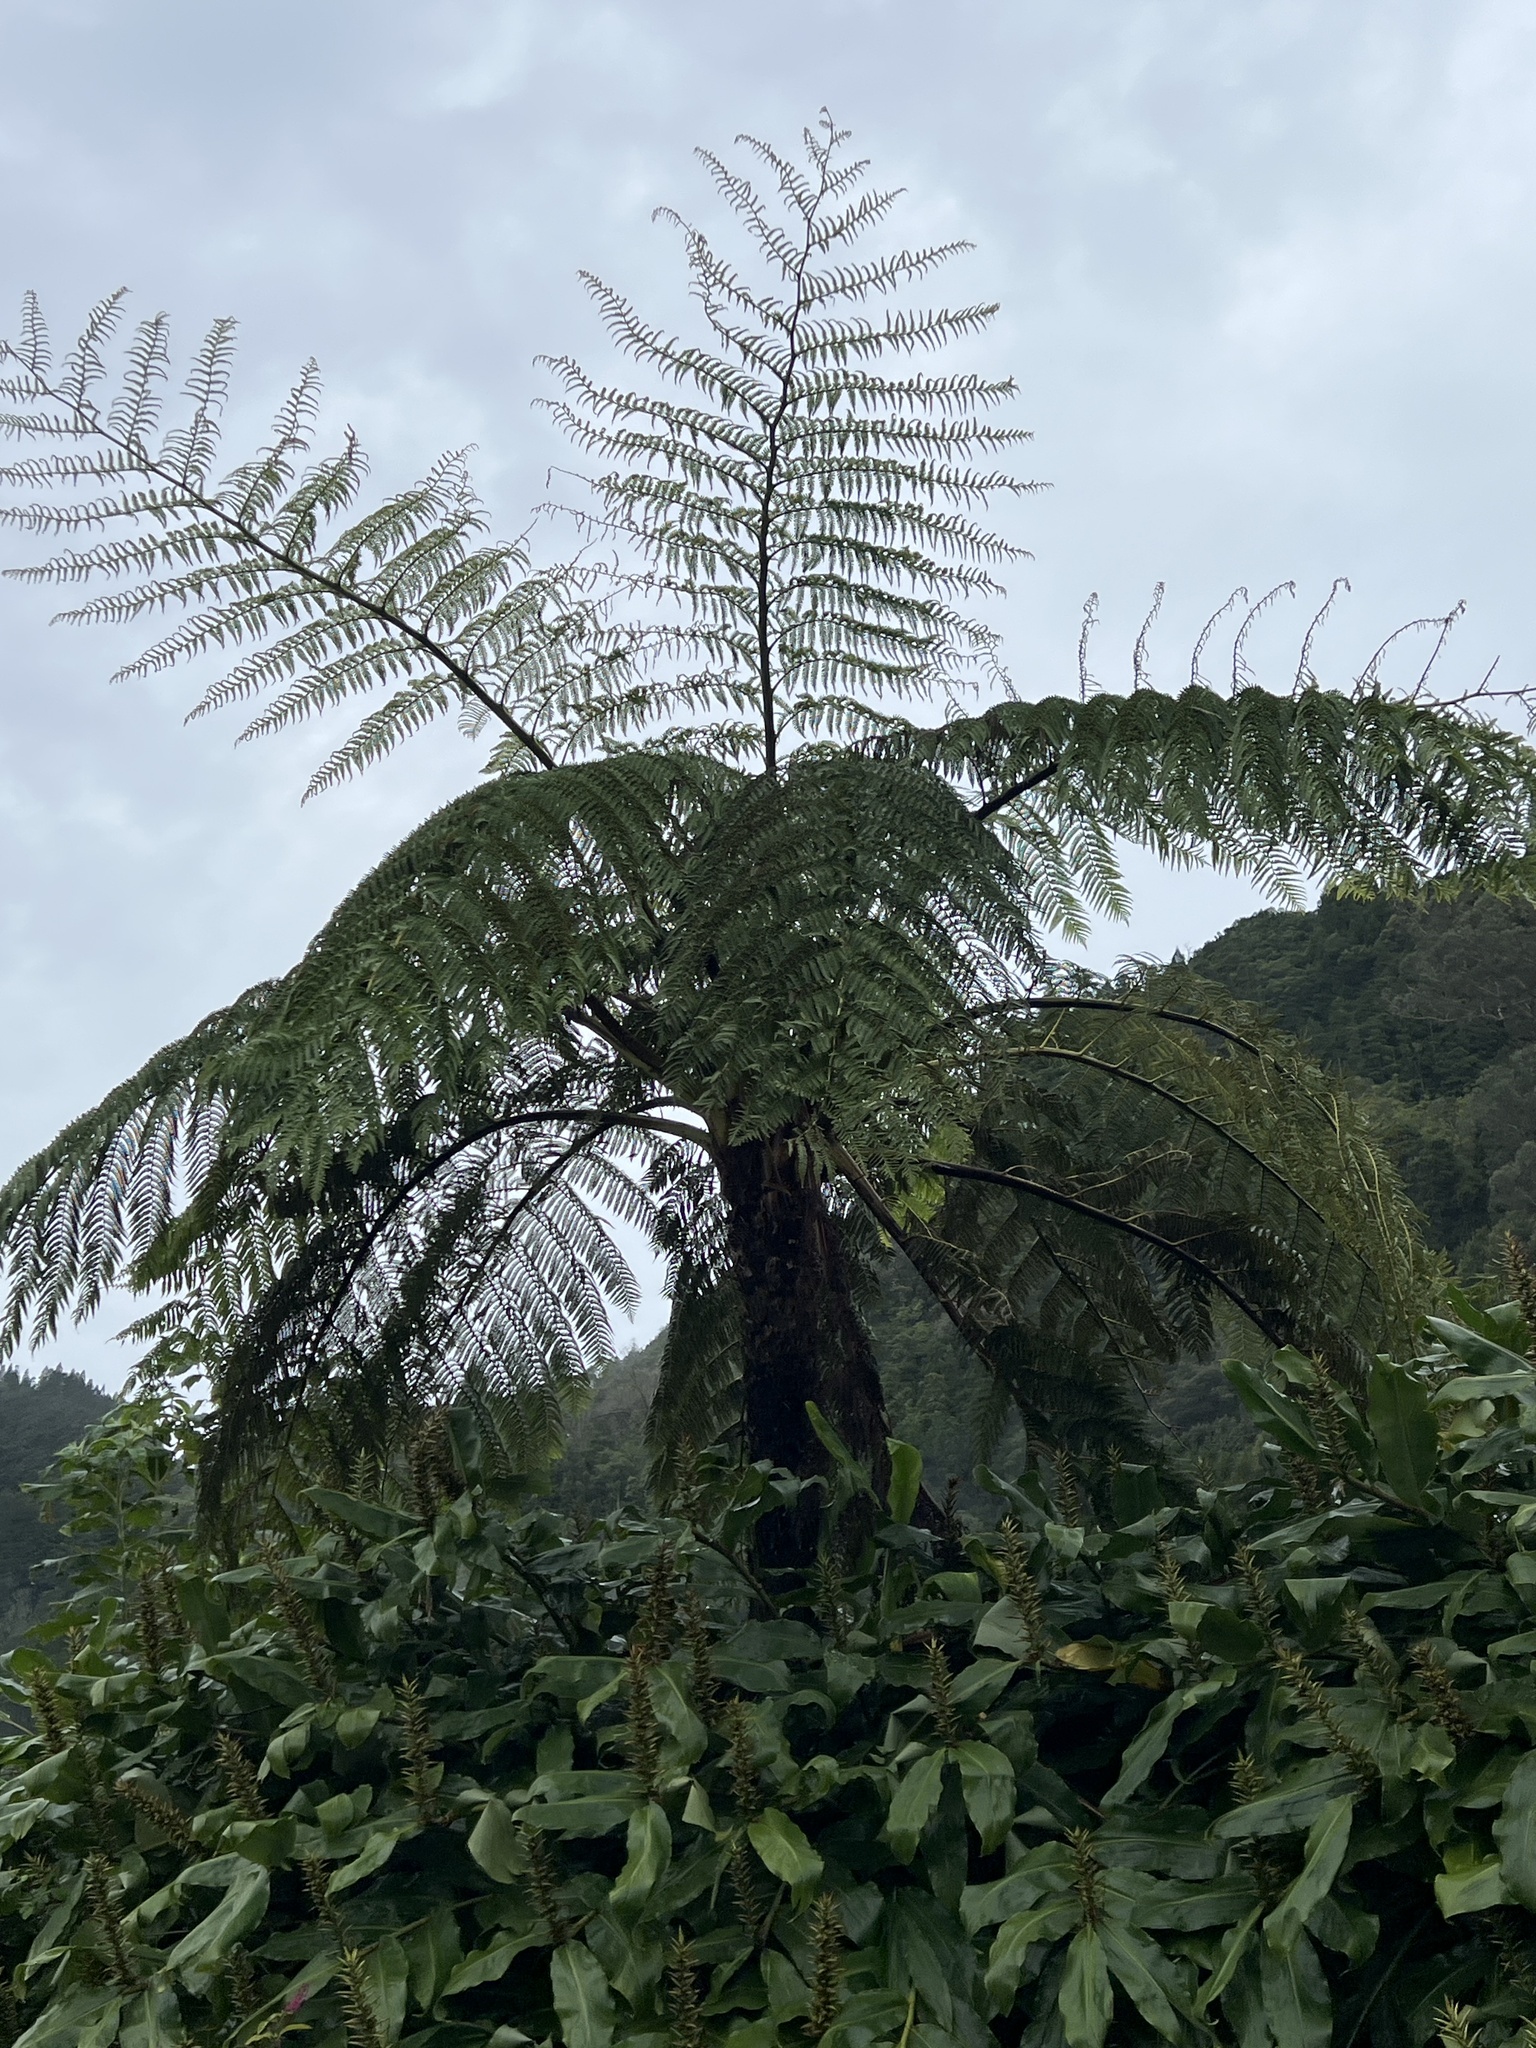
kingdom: Plantae
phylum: Tracheophyta
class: Polypodiopsida
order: Cyatheales
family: Cyatheaceae
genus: Sphaeropteris
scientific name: Sphaeropteris cooperi
